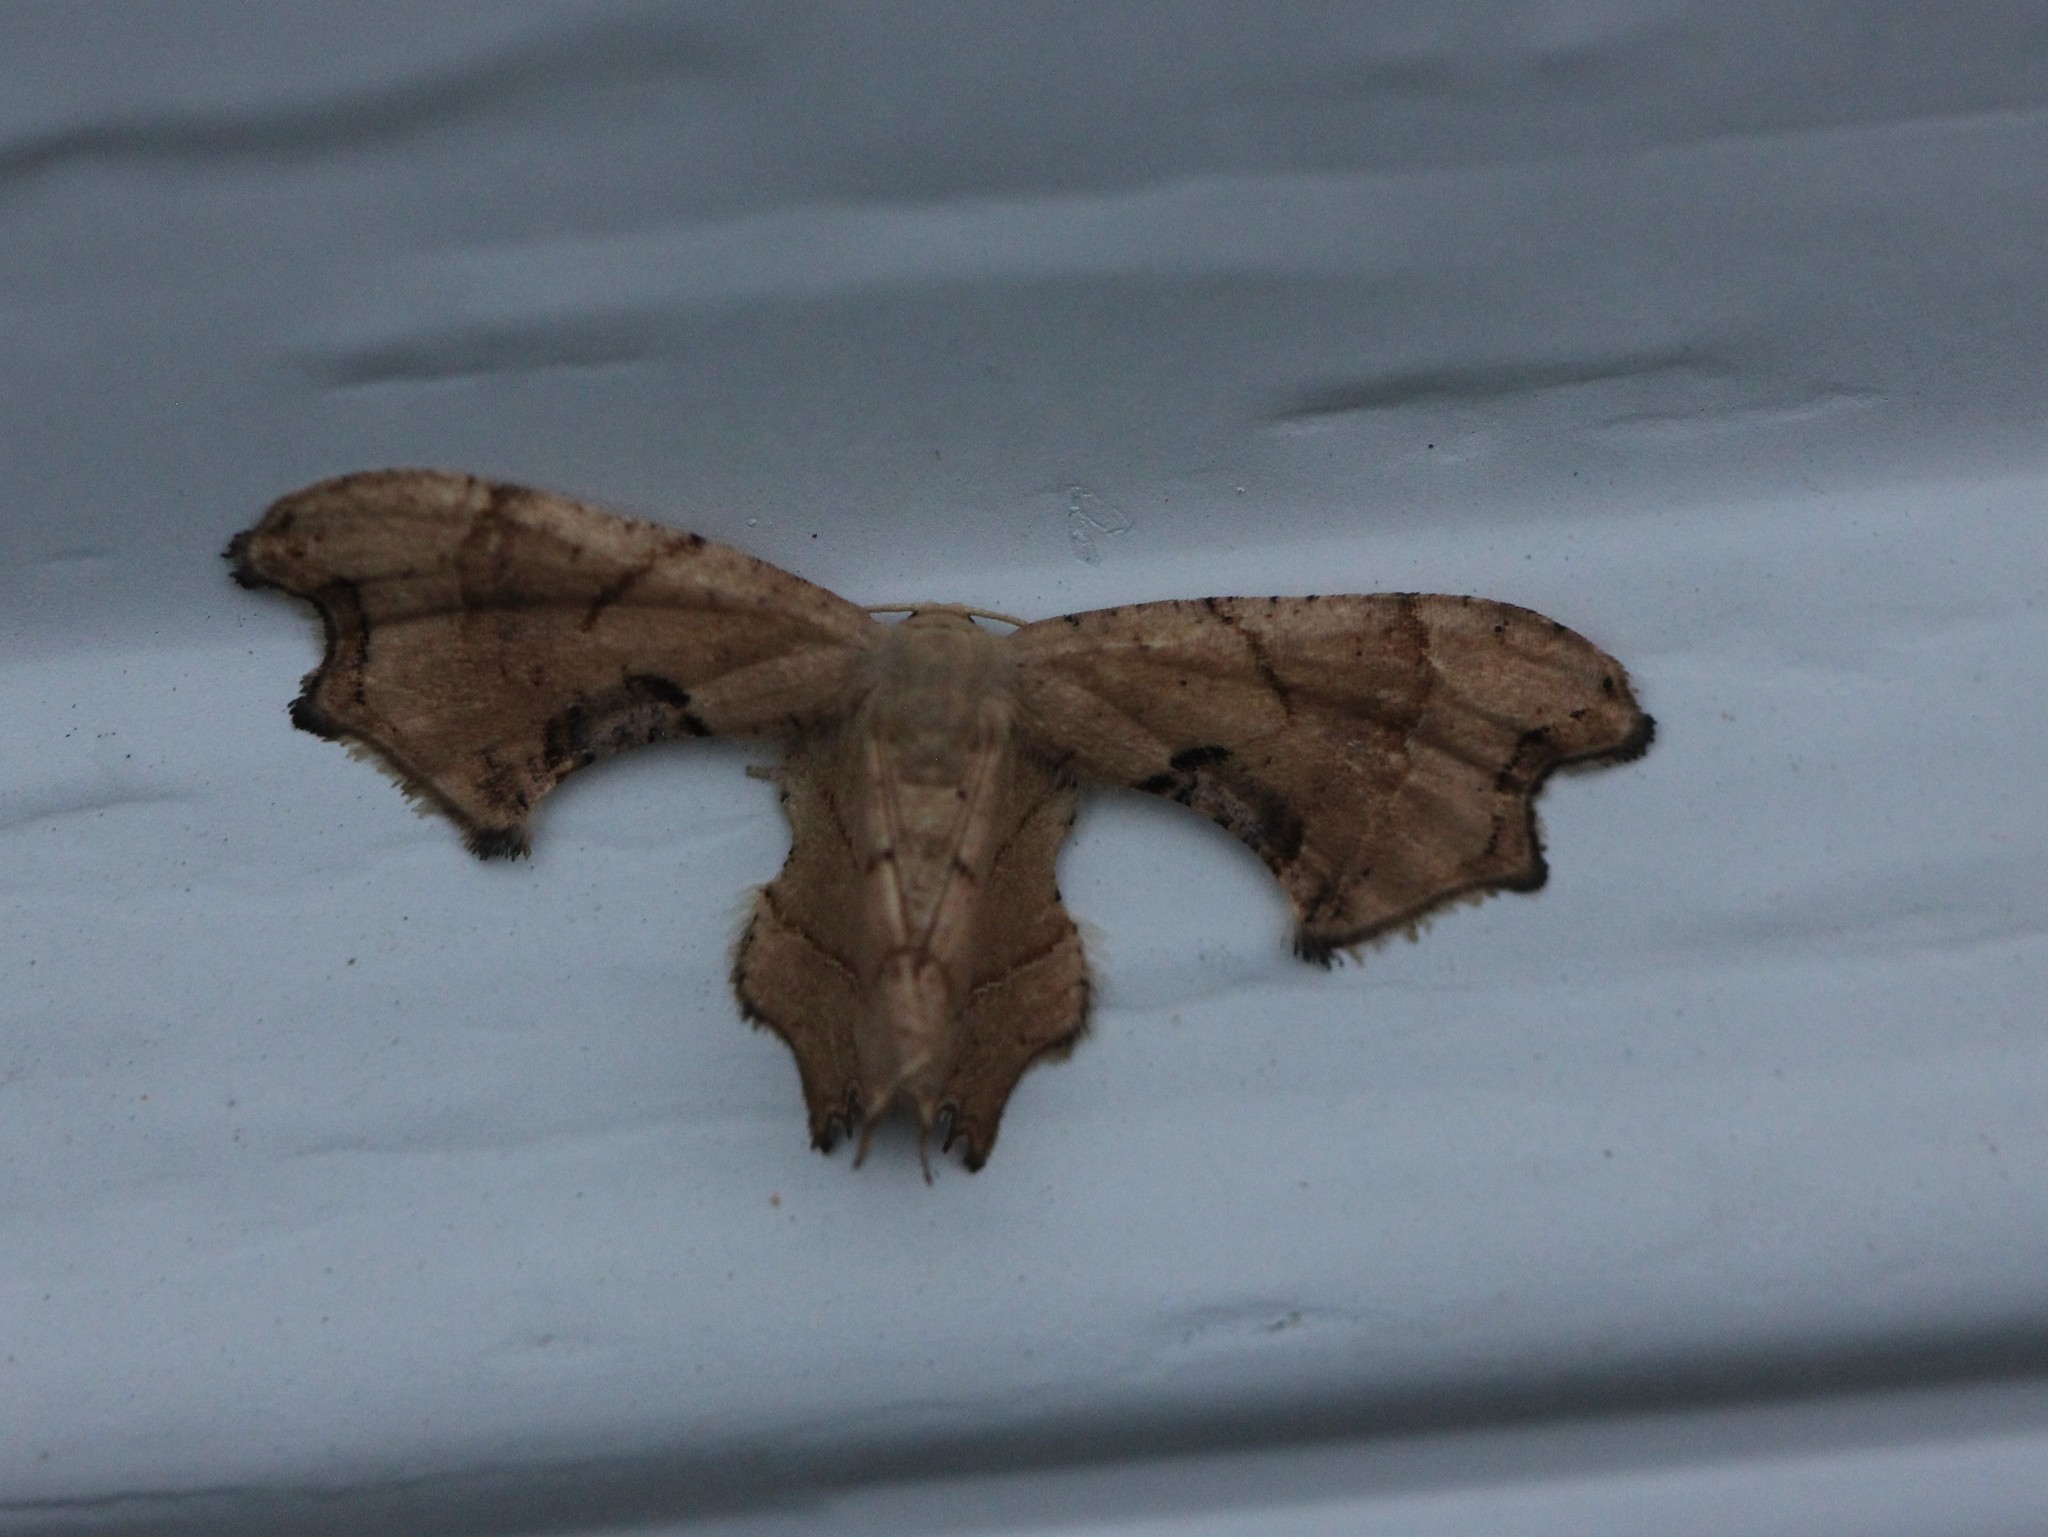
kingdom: Animalia
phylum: Arthropoda
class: Insecta
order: Lepidoptera
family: Uraniidae
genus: Epiplema
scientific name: Epiplema Calledapteryx dryopterata
